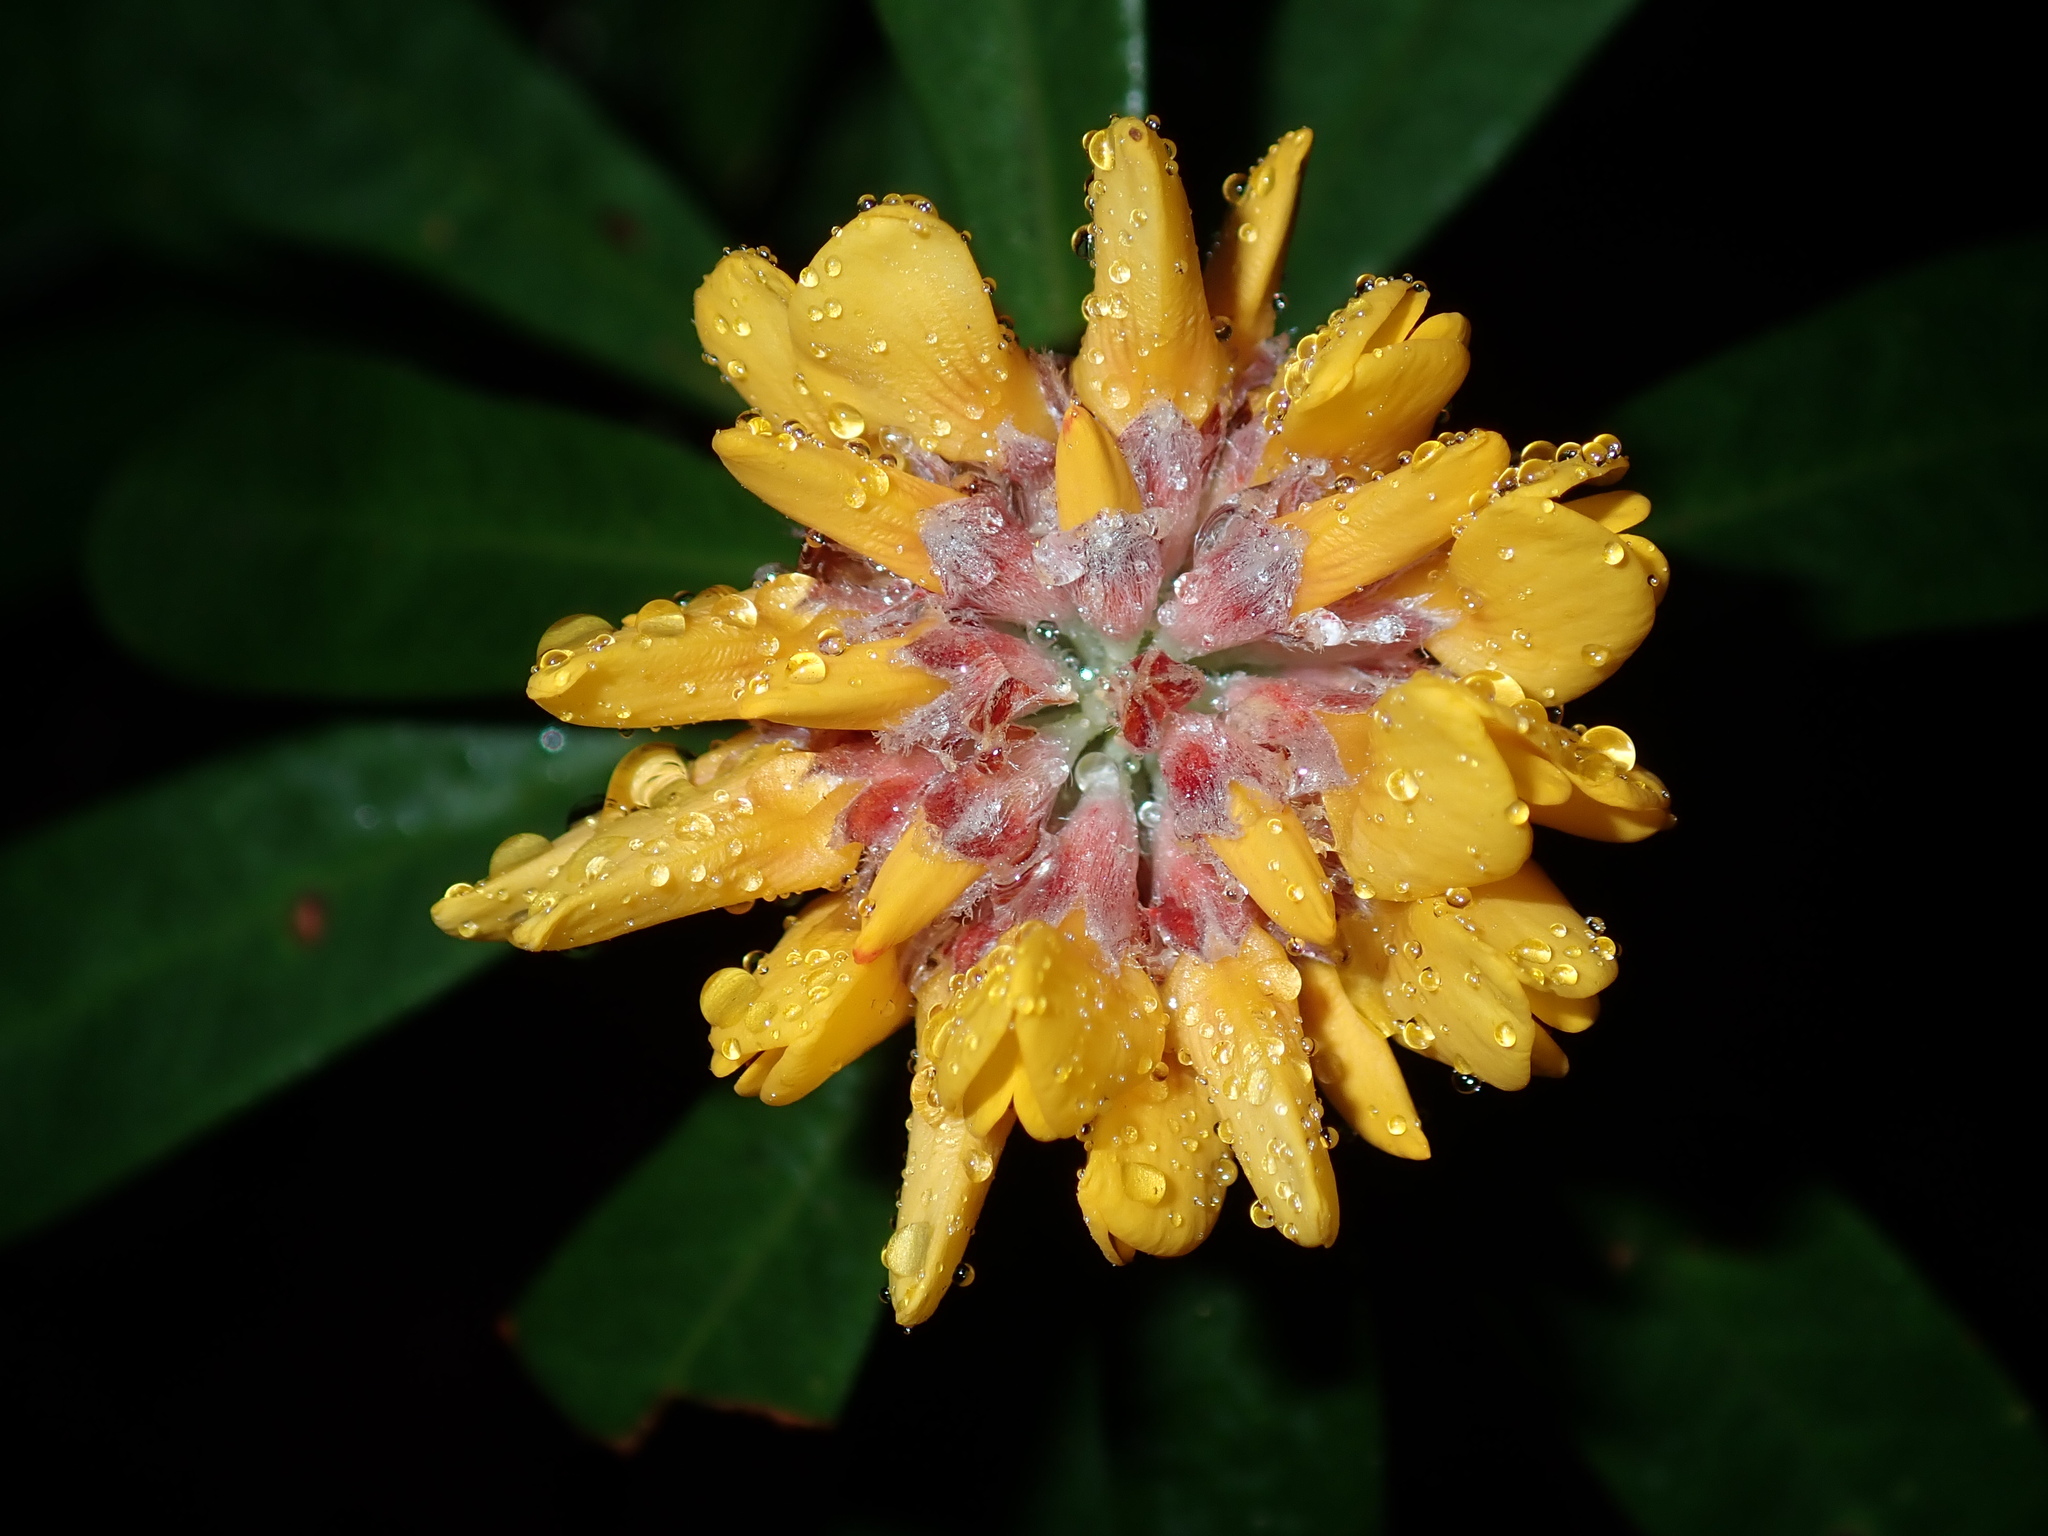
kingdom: Plantae
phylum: Tracheophyta
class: Magnoliopsida
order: Fabales
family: Fabaceae
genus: Pultenaea
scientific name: Pultenaea daphnoides
